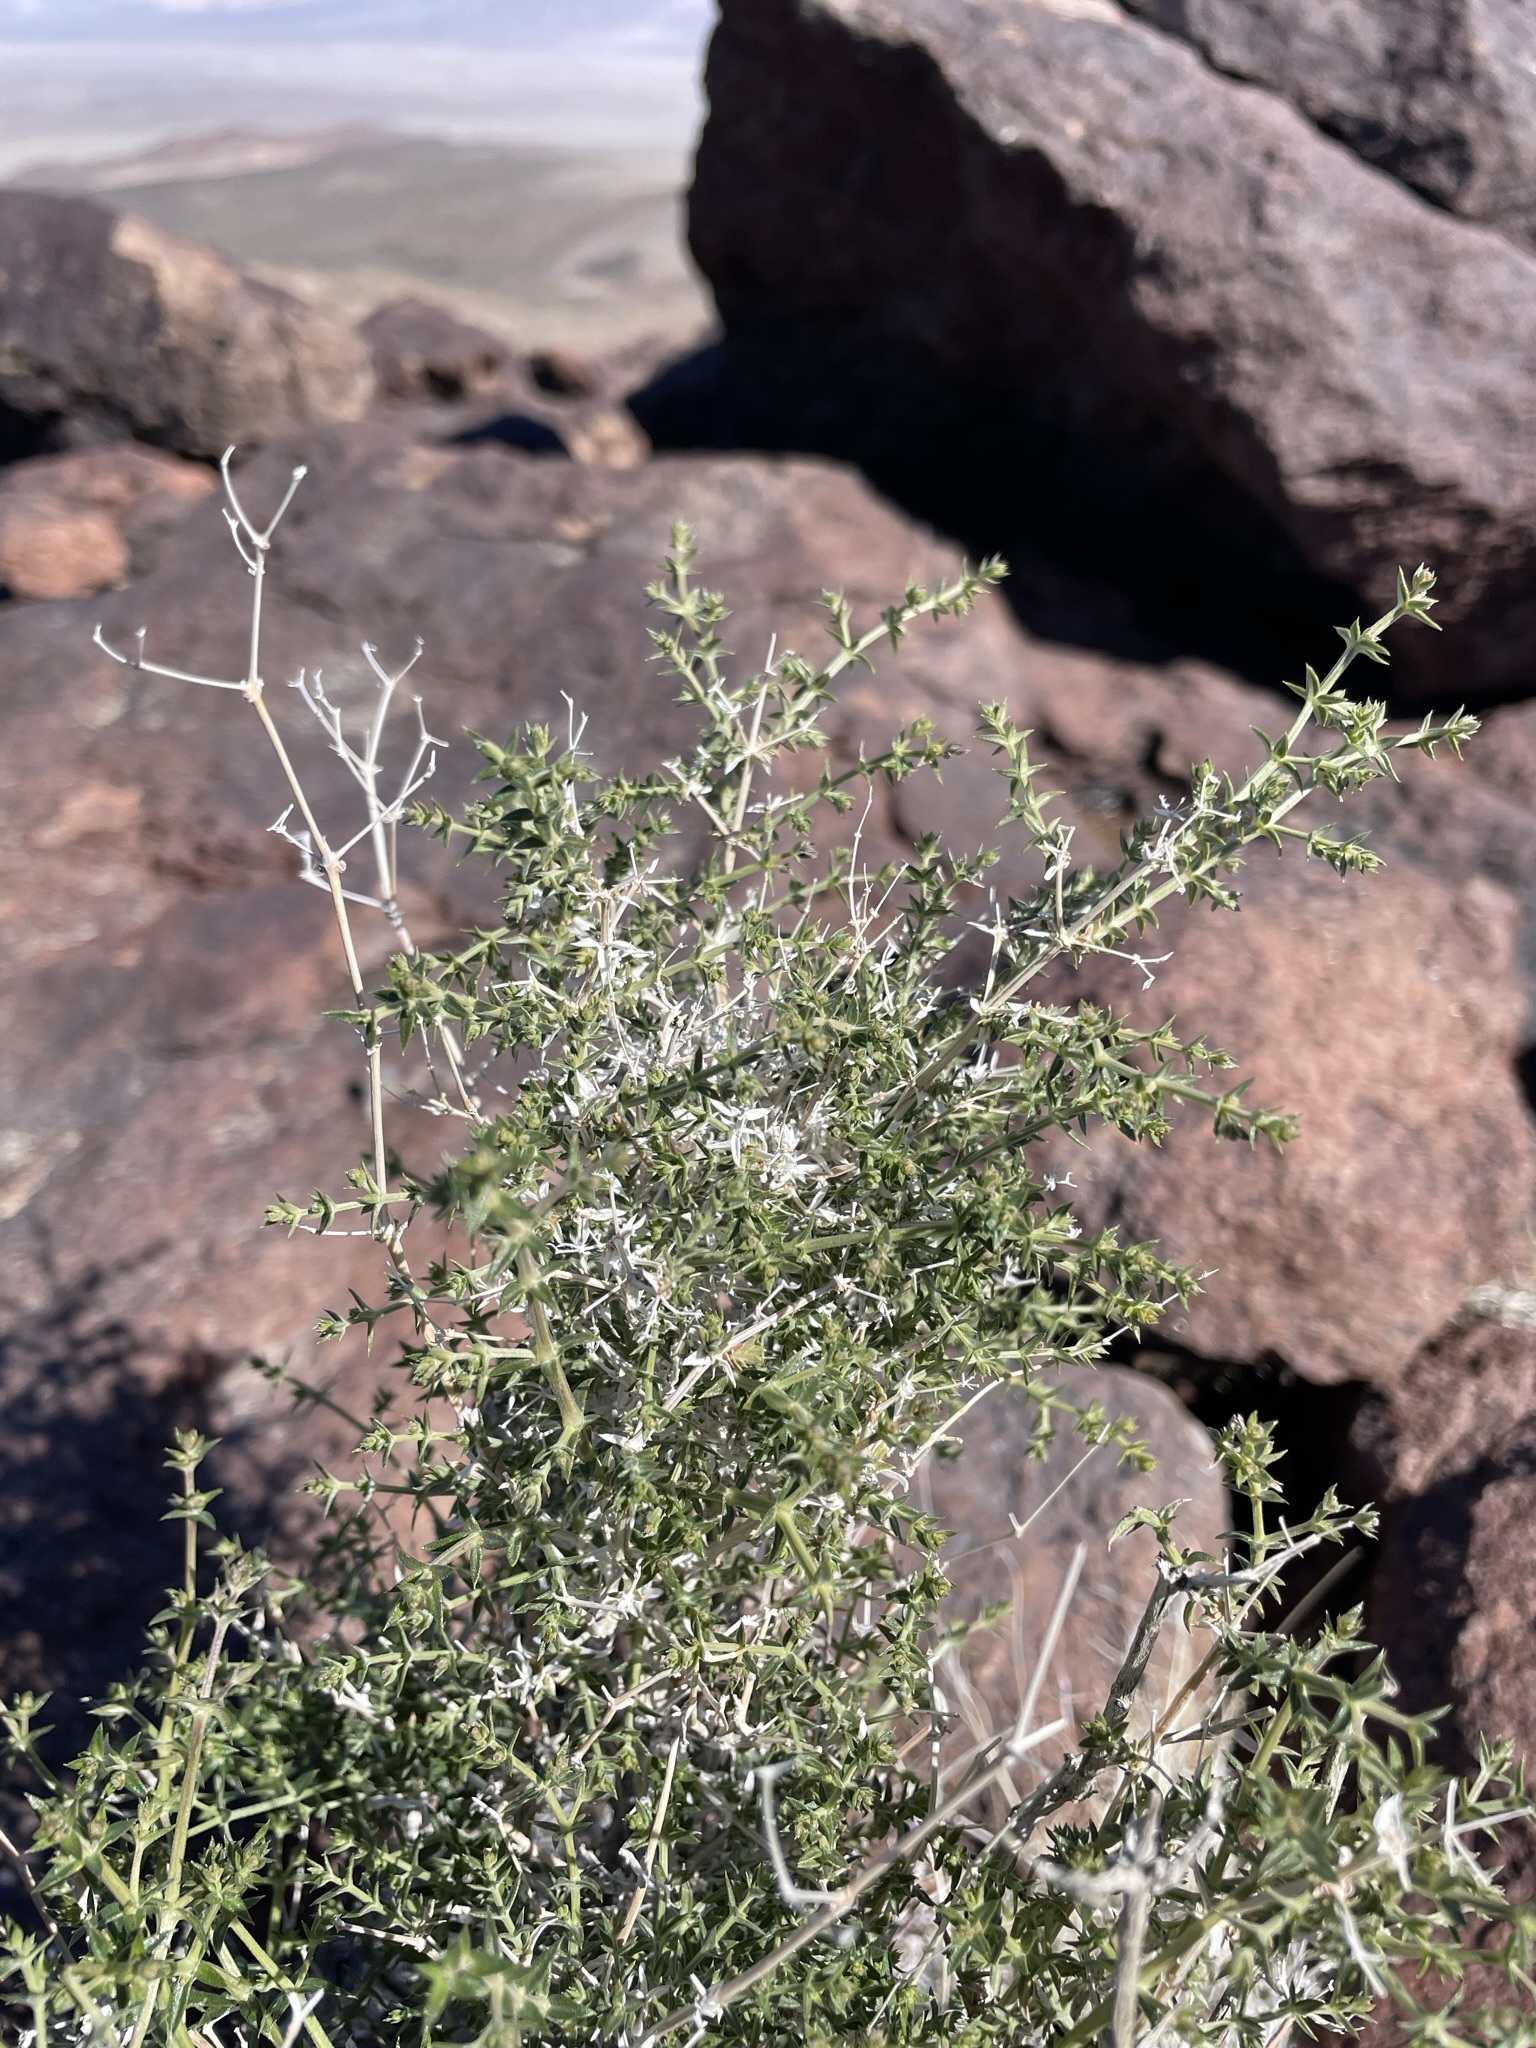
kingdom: Plantae
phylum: Tracheophyta
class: Magnoliopsida
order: Gentianales
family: Rubiaceae
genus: Galium
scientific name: Galium stellatum
